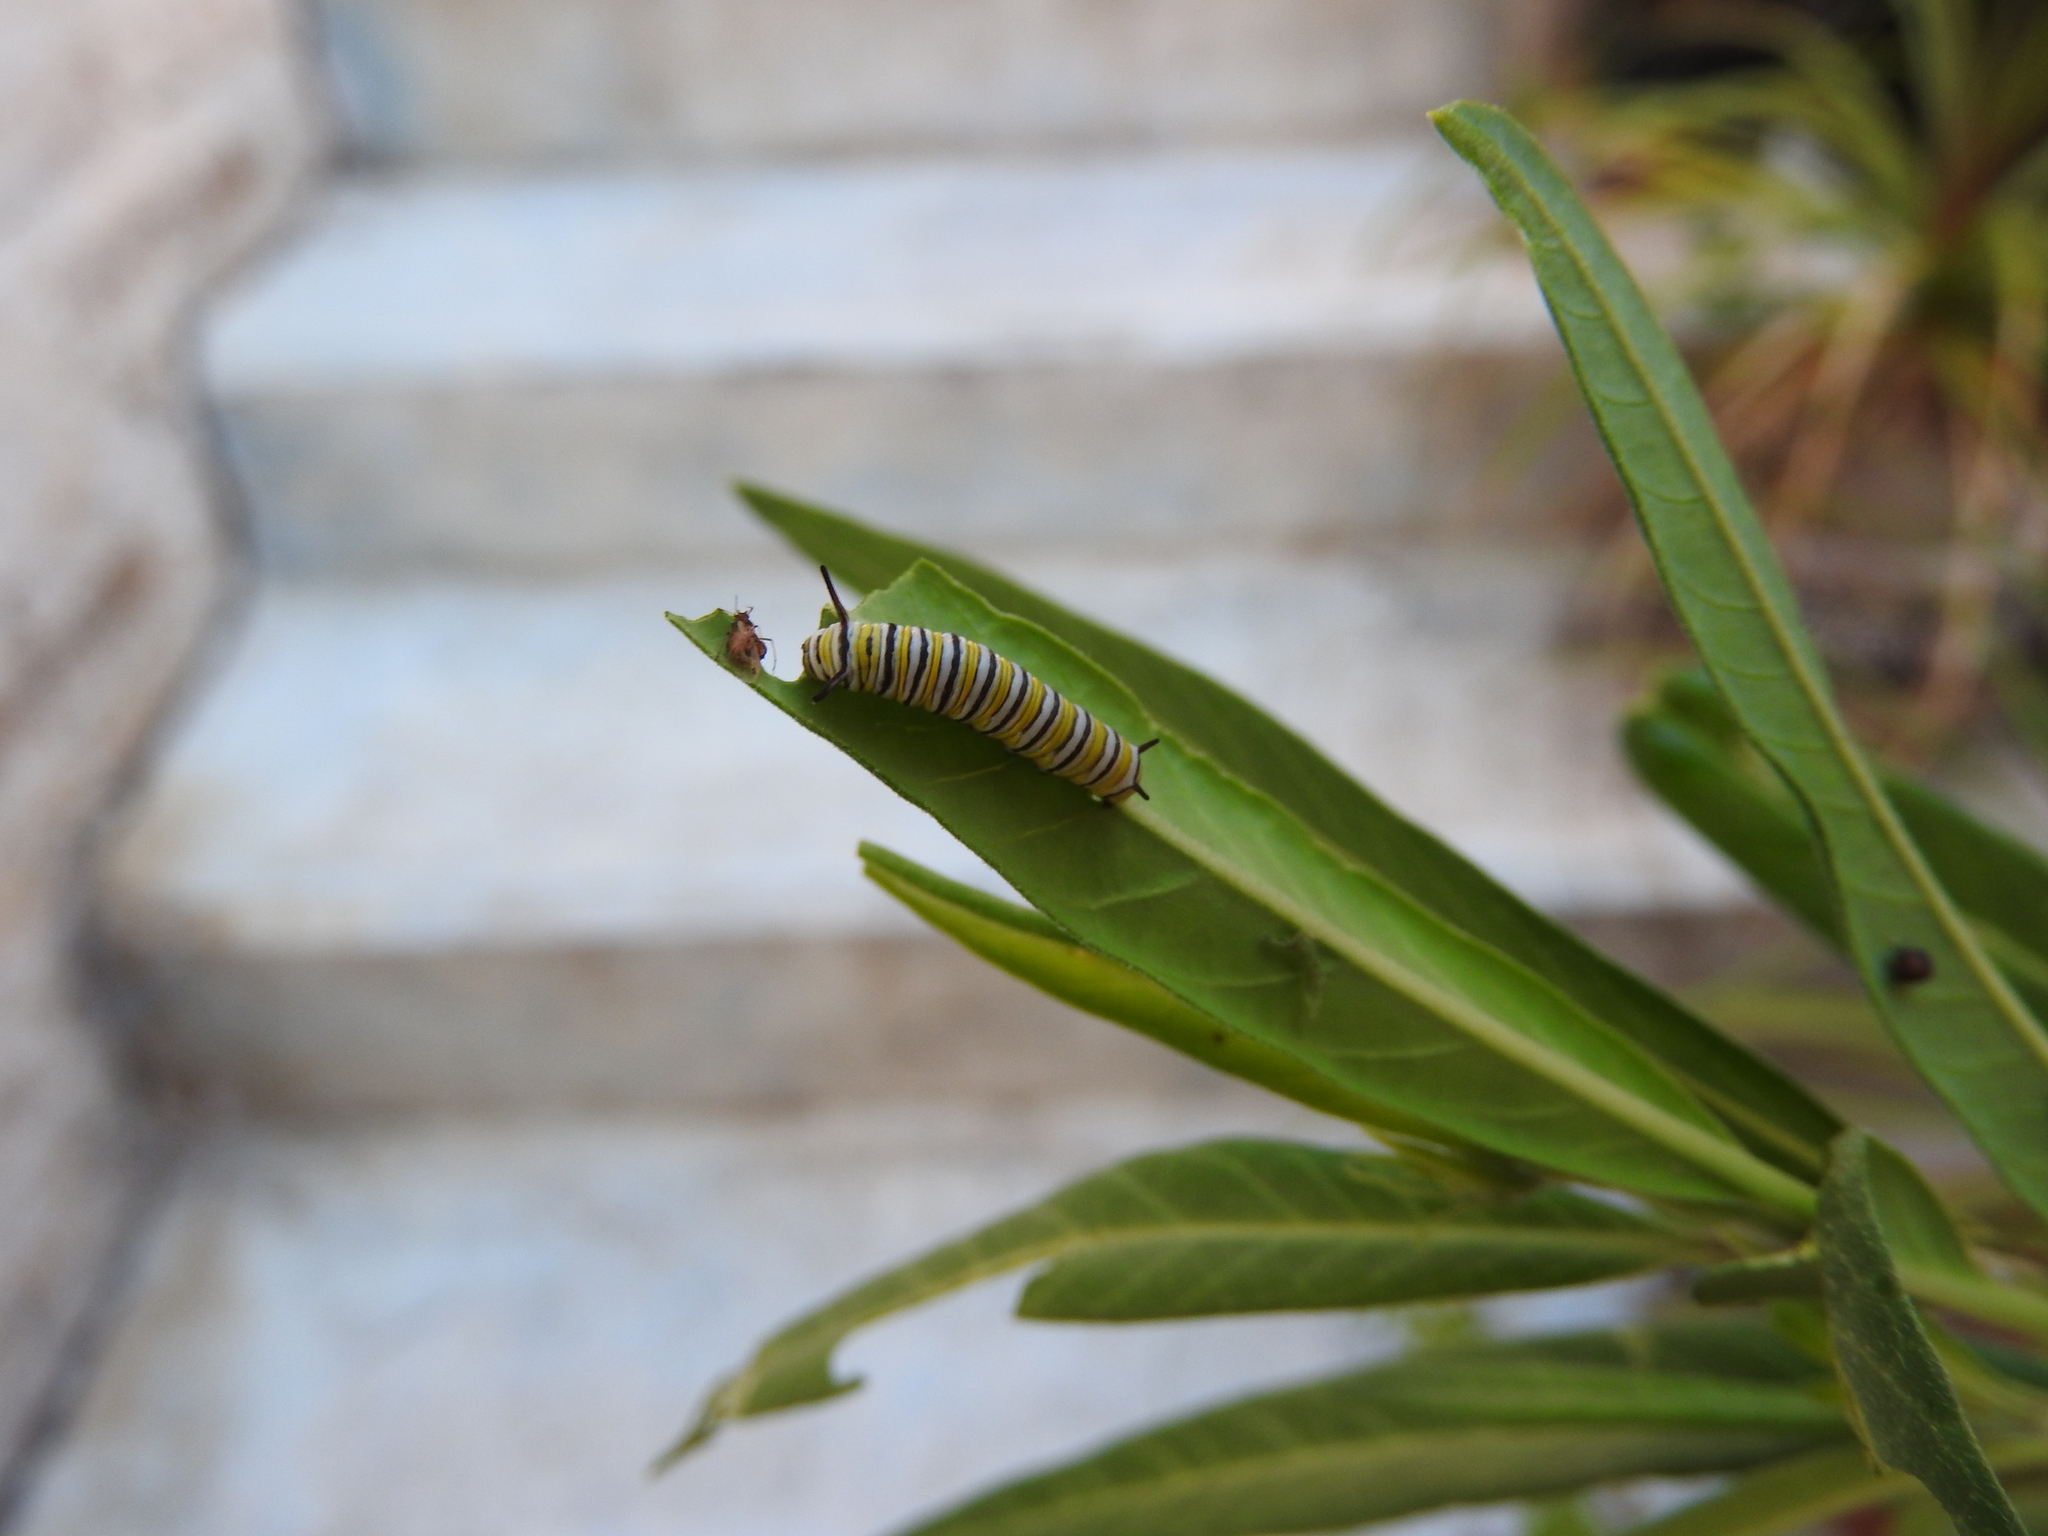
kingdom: Animalia
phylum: Arthropoda
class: Insecta
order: Lepidoptera
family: Nymphalidae
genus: Danaus
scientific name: Danaus plexippus
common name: Monarch
